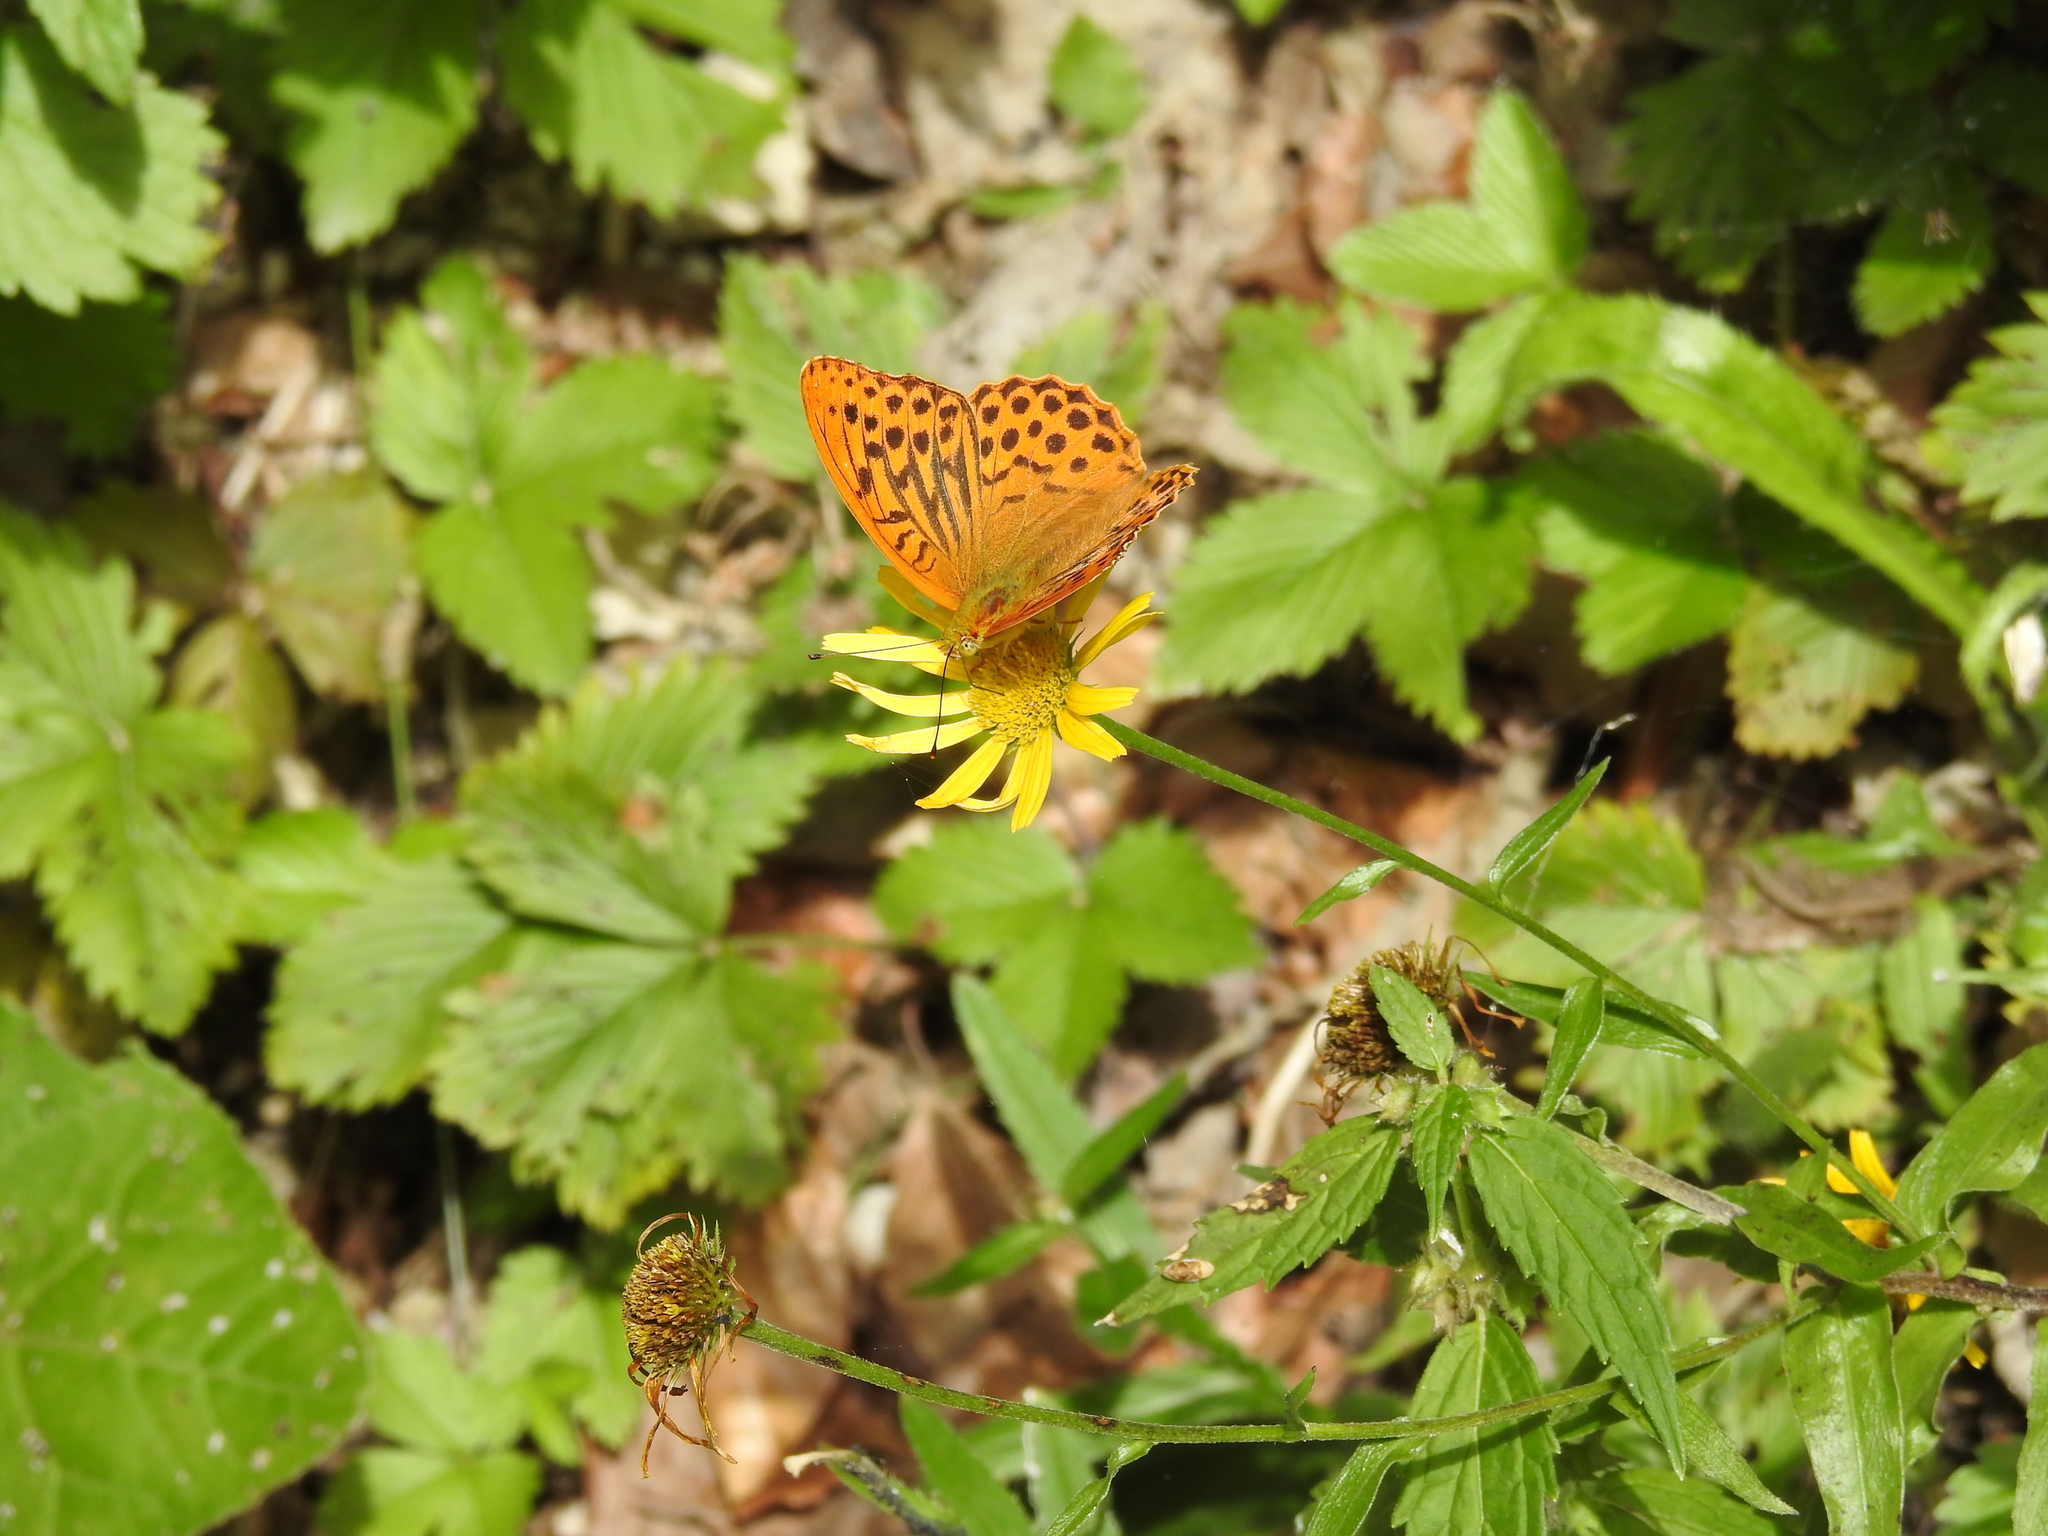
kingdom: Animalia
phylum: Arthropoda
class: Insecta
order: Lepidoptera
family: Nymphalidae
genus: Argynnis
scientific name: Argynnis paphia
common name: Silver-washed fritillary
